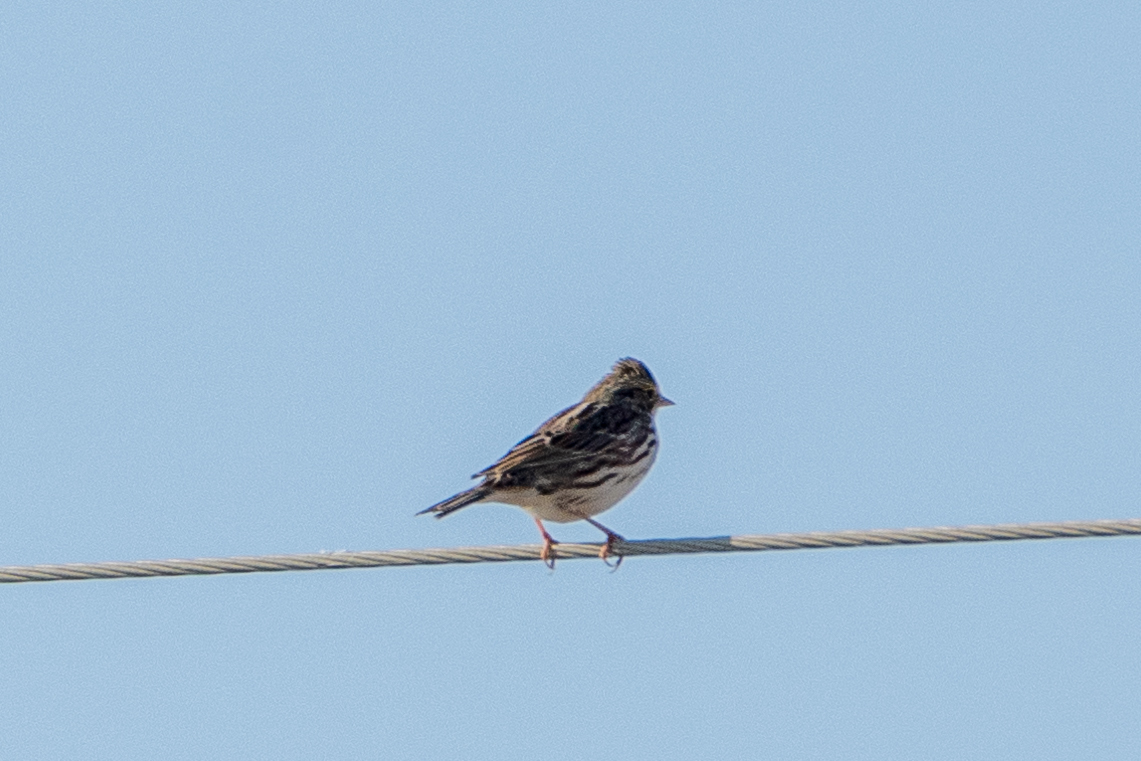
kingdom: Animalia
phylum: Chordata
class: Aves
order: Passeriformes
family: Passerellidae
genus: Passerculus
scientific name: Passerculus sandwichensis
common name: Savannah sparrow
